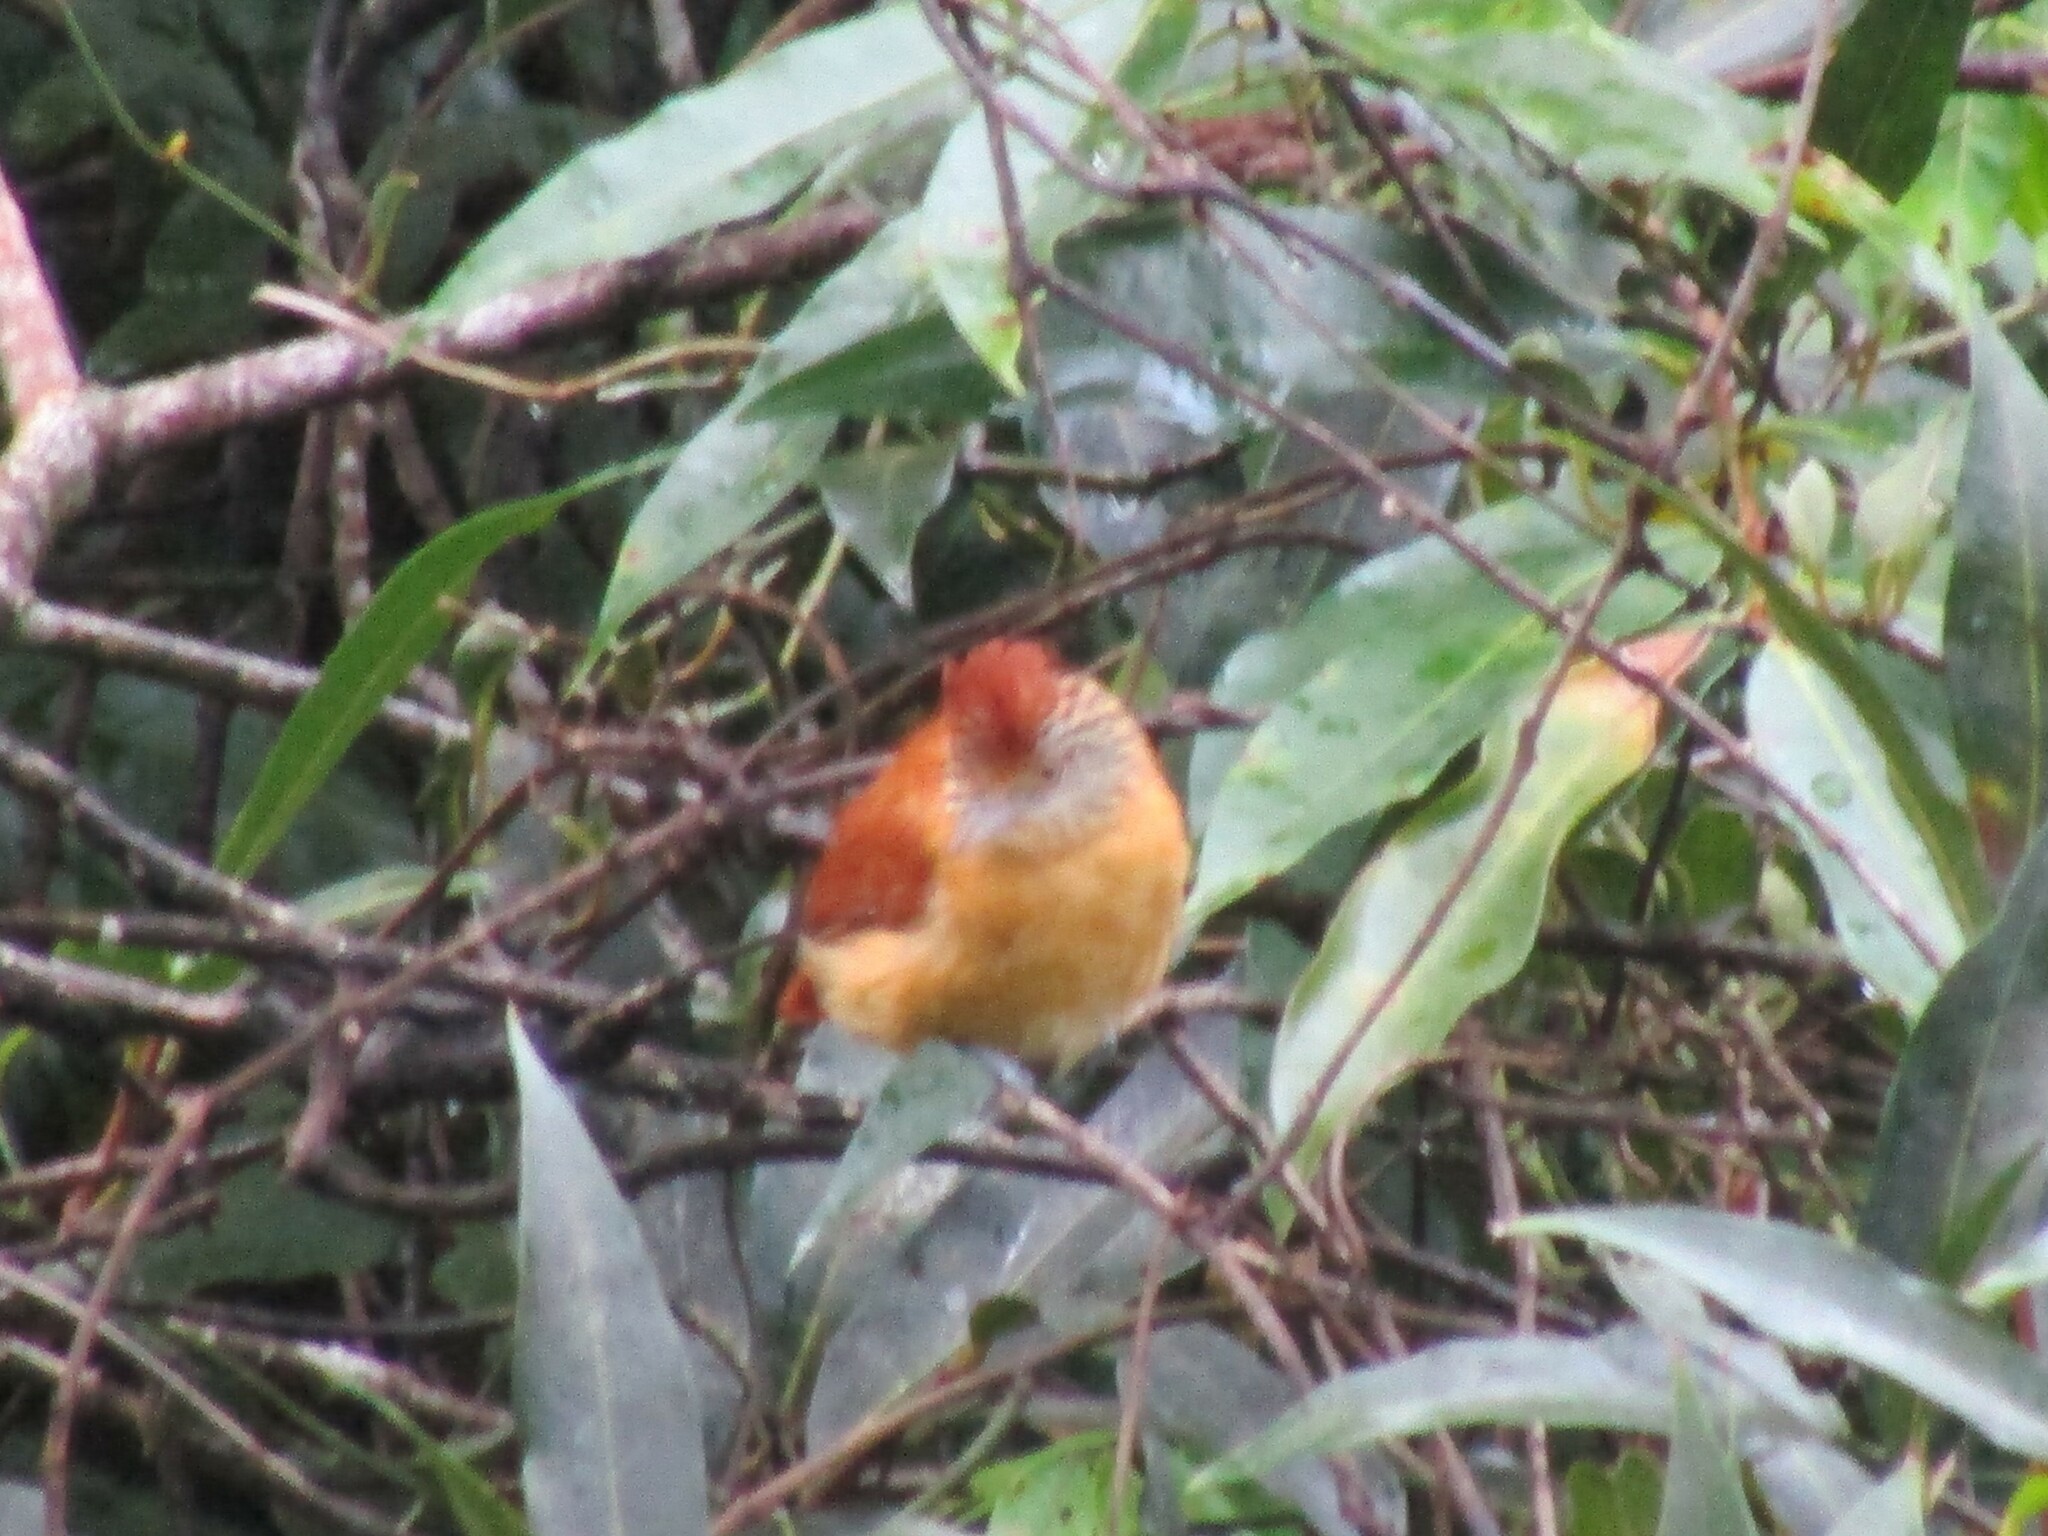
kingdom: Animalia
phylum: Chordata
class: Aves
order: Passeriformes
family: Thamnophilidae
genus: Thamnophilus
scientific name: Thamnophilus doliatus
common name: Barred antshrike
